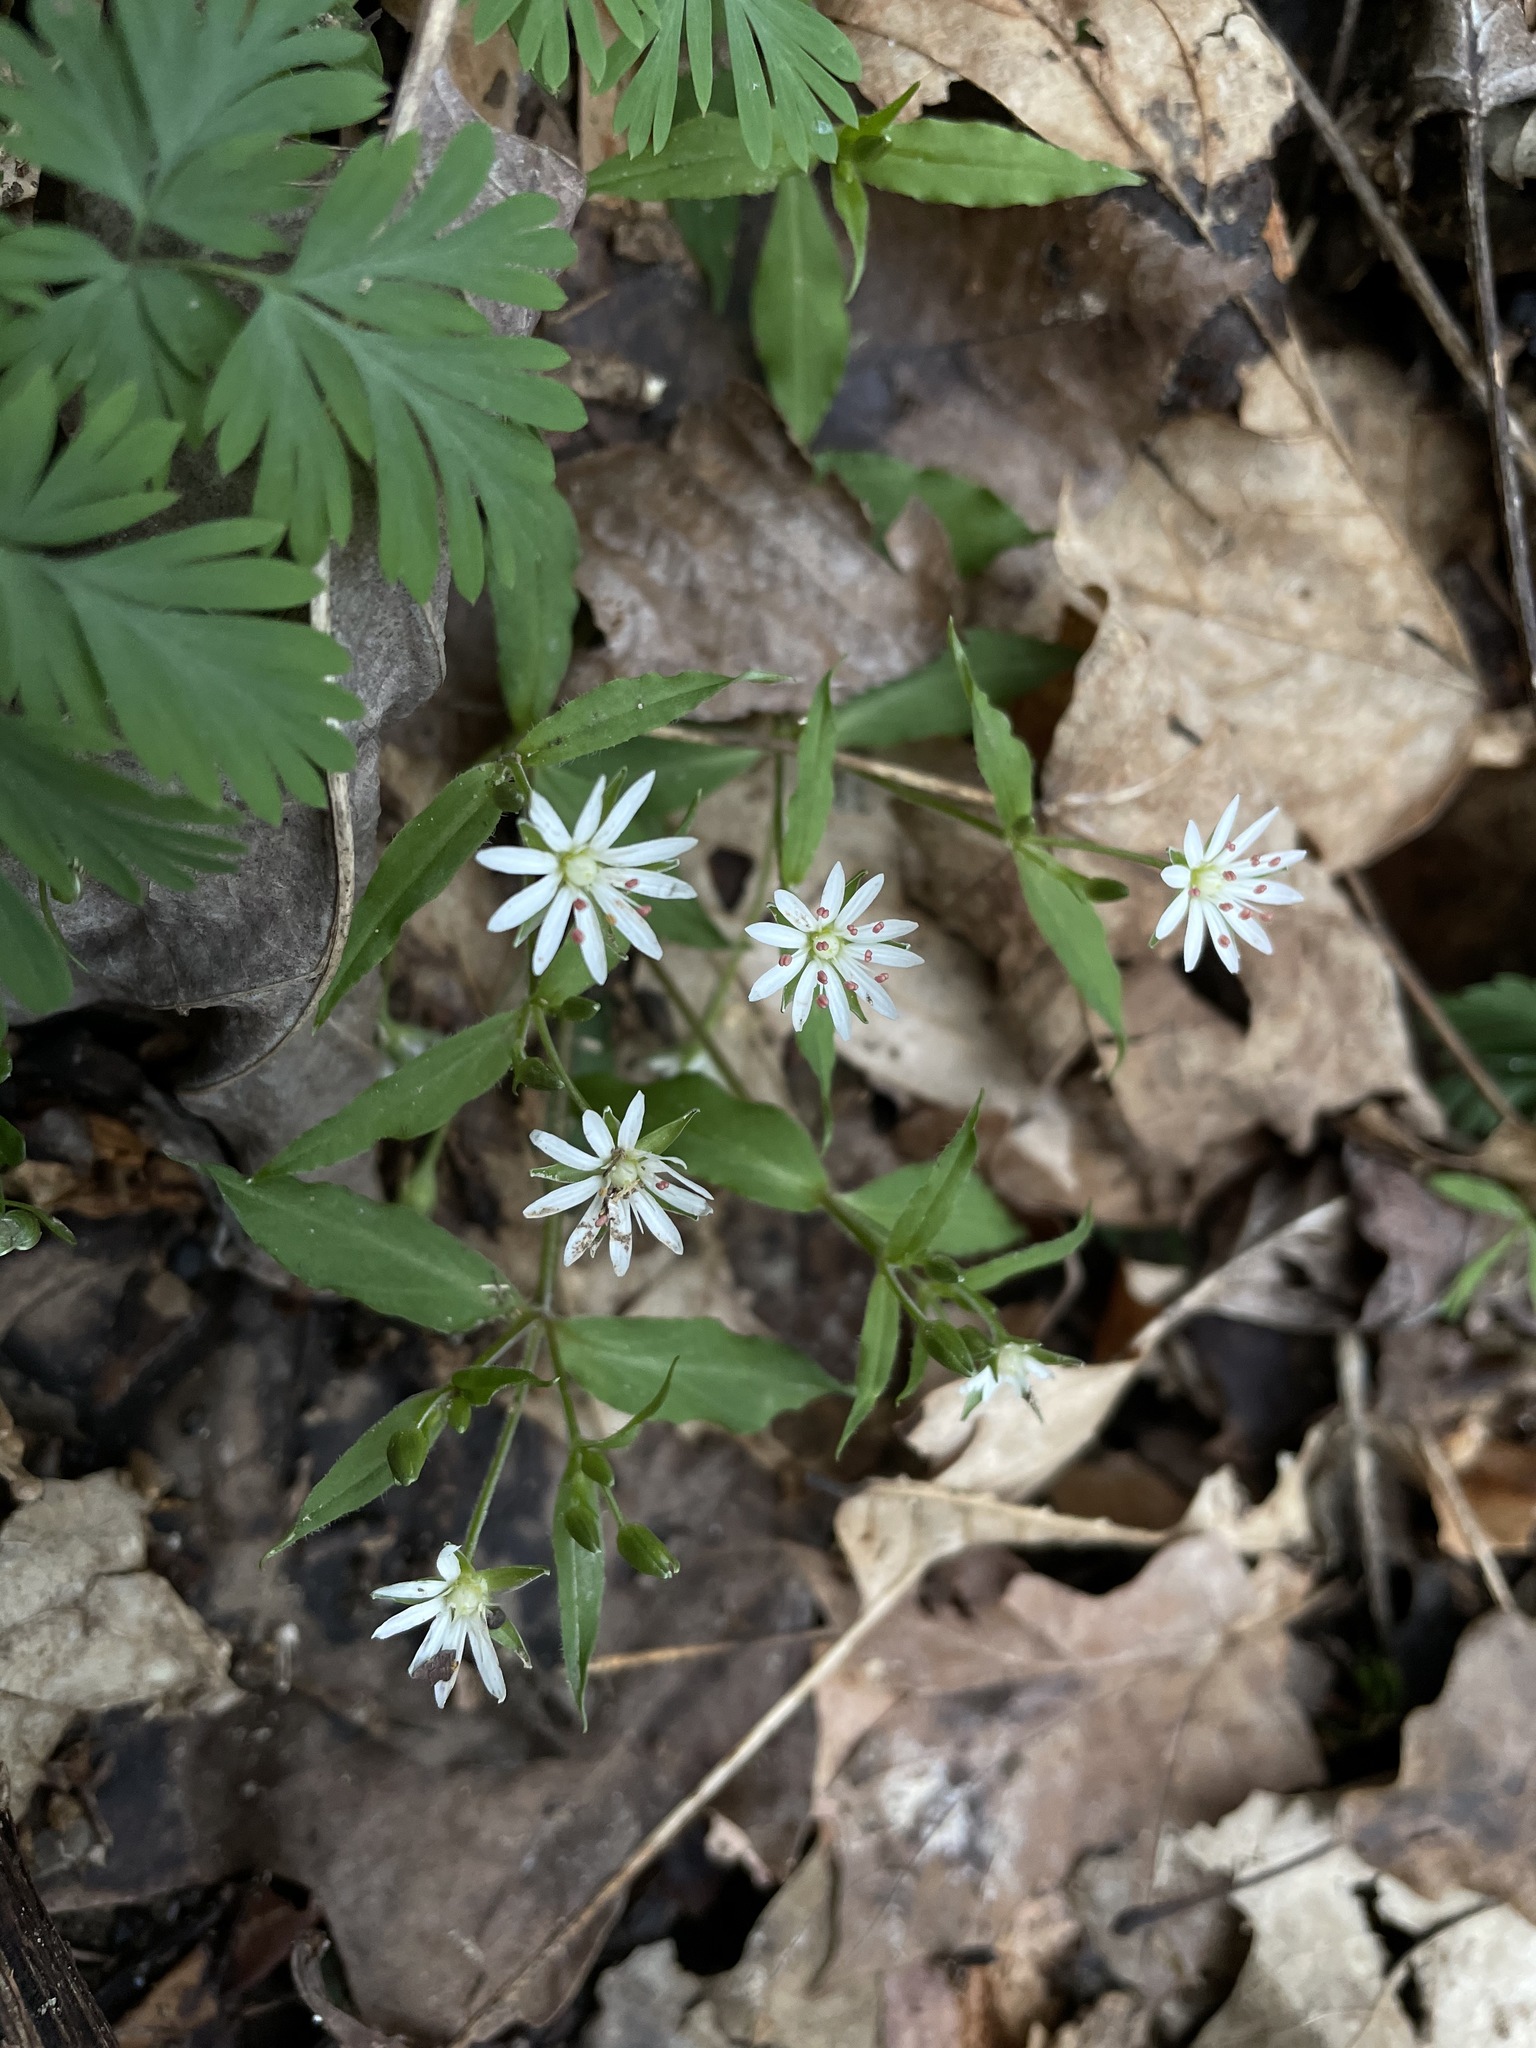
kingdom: Plantae
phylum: Tracheophyta
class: Magnoliopsida
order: Caryophyllales
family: Caryophyllaceae
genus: Stellaria
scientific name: Stellaria pubera
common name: Star chickweed
